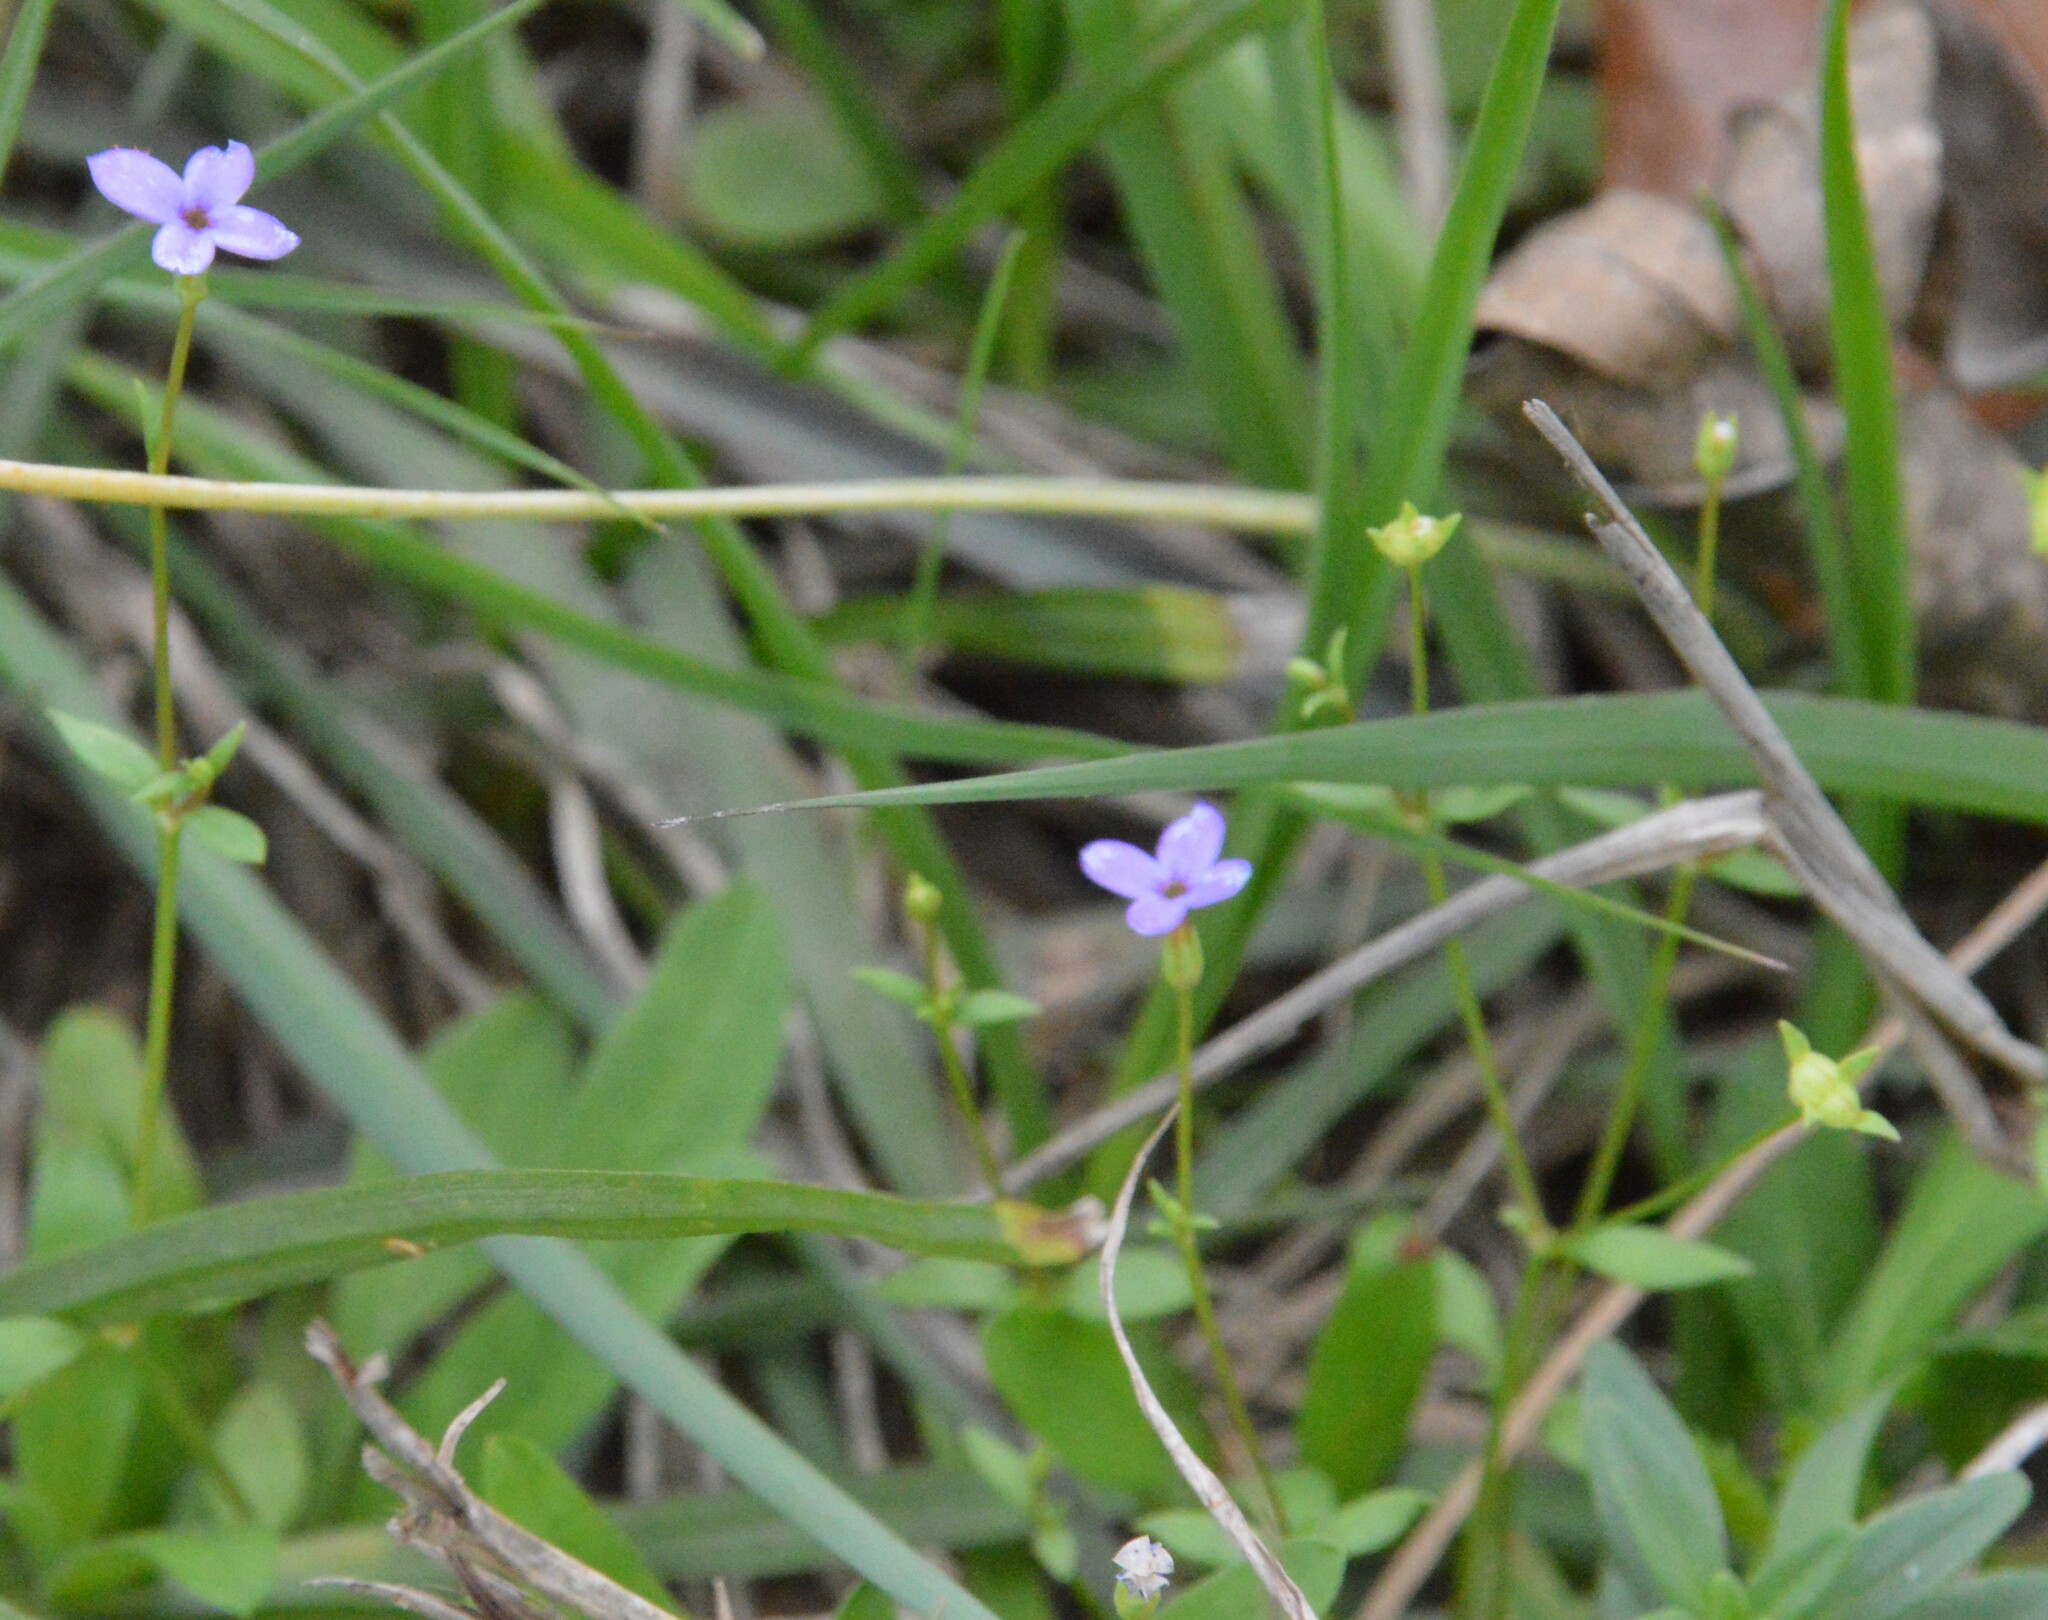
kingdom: Plantae
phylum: Tracheophyta
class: Magnoliopsida
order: Gentianales
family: Rubiaceae
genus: Houstonia
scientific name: Houstonia pusilla
